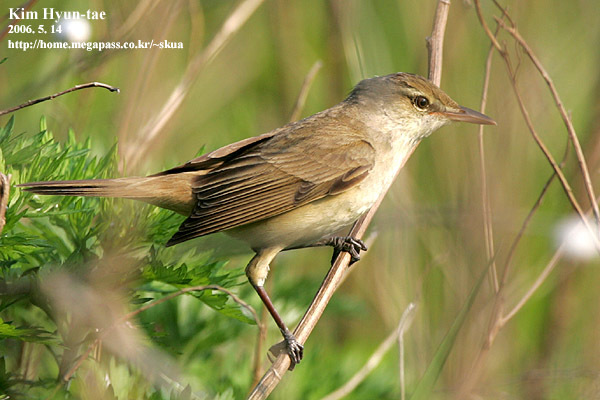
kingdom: Animalia
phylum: Chordata
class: Aves
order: Passeriformes
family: Acrocephalidae
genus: Acrocephalus
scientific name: Acrocephalus orientalis
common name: Oriental reed warbler
